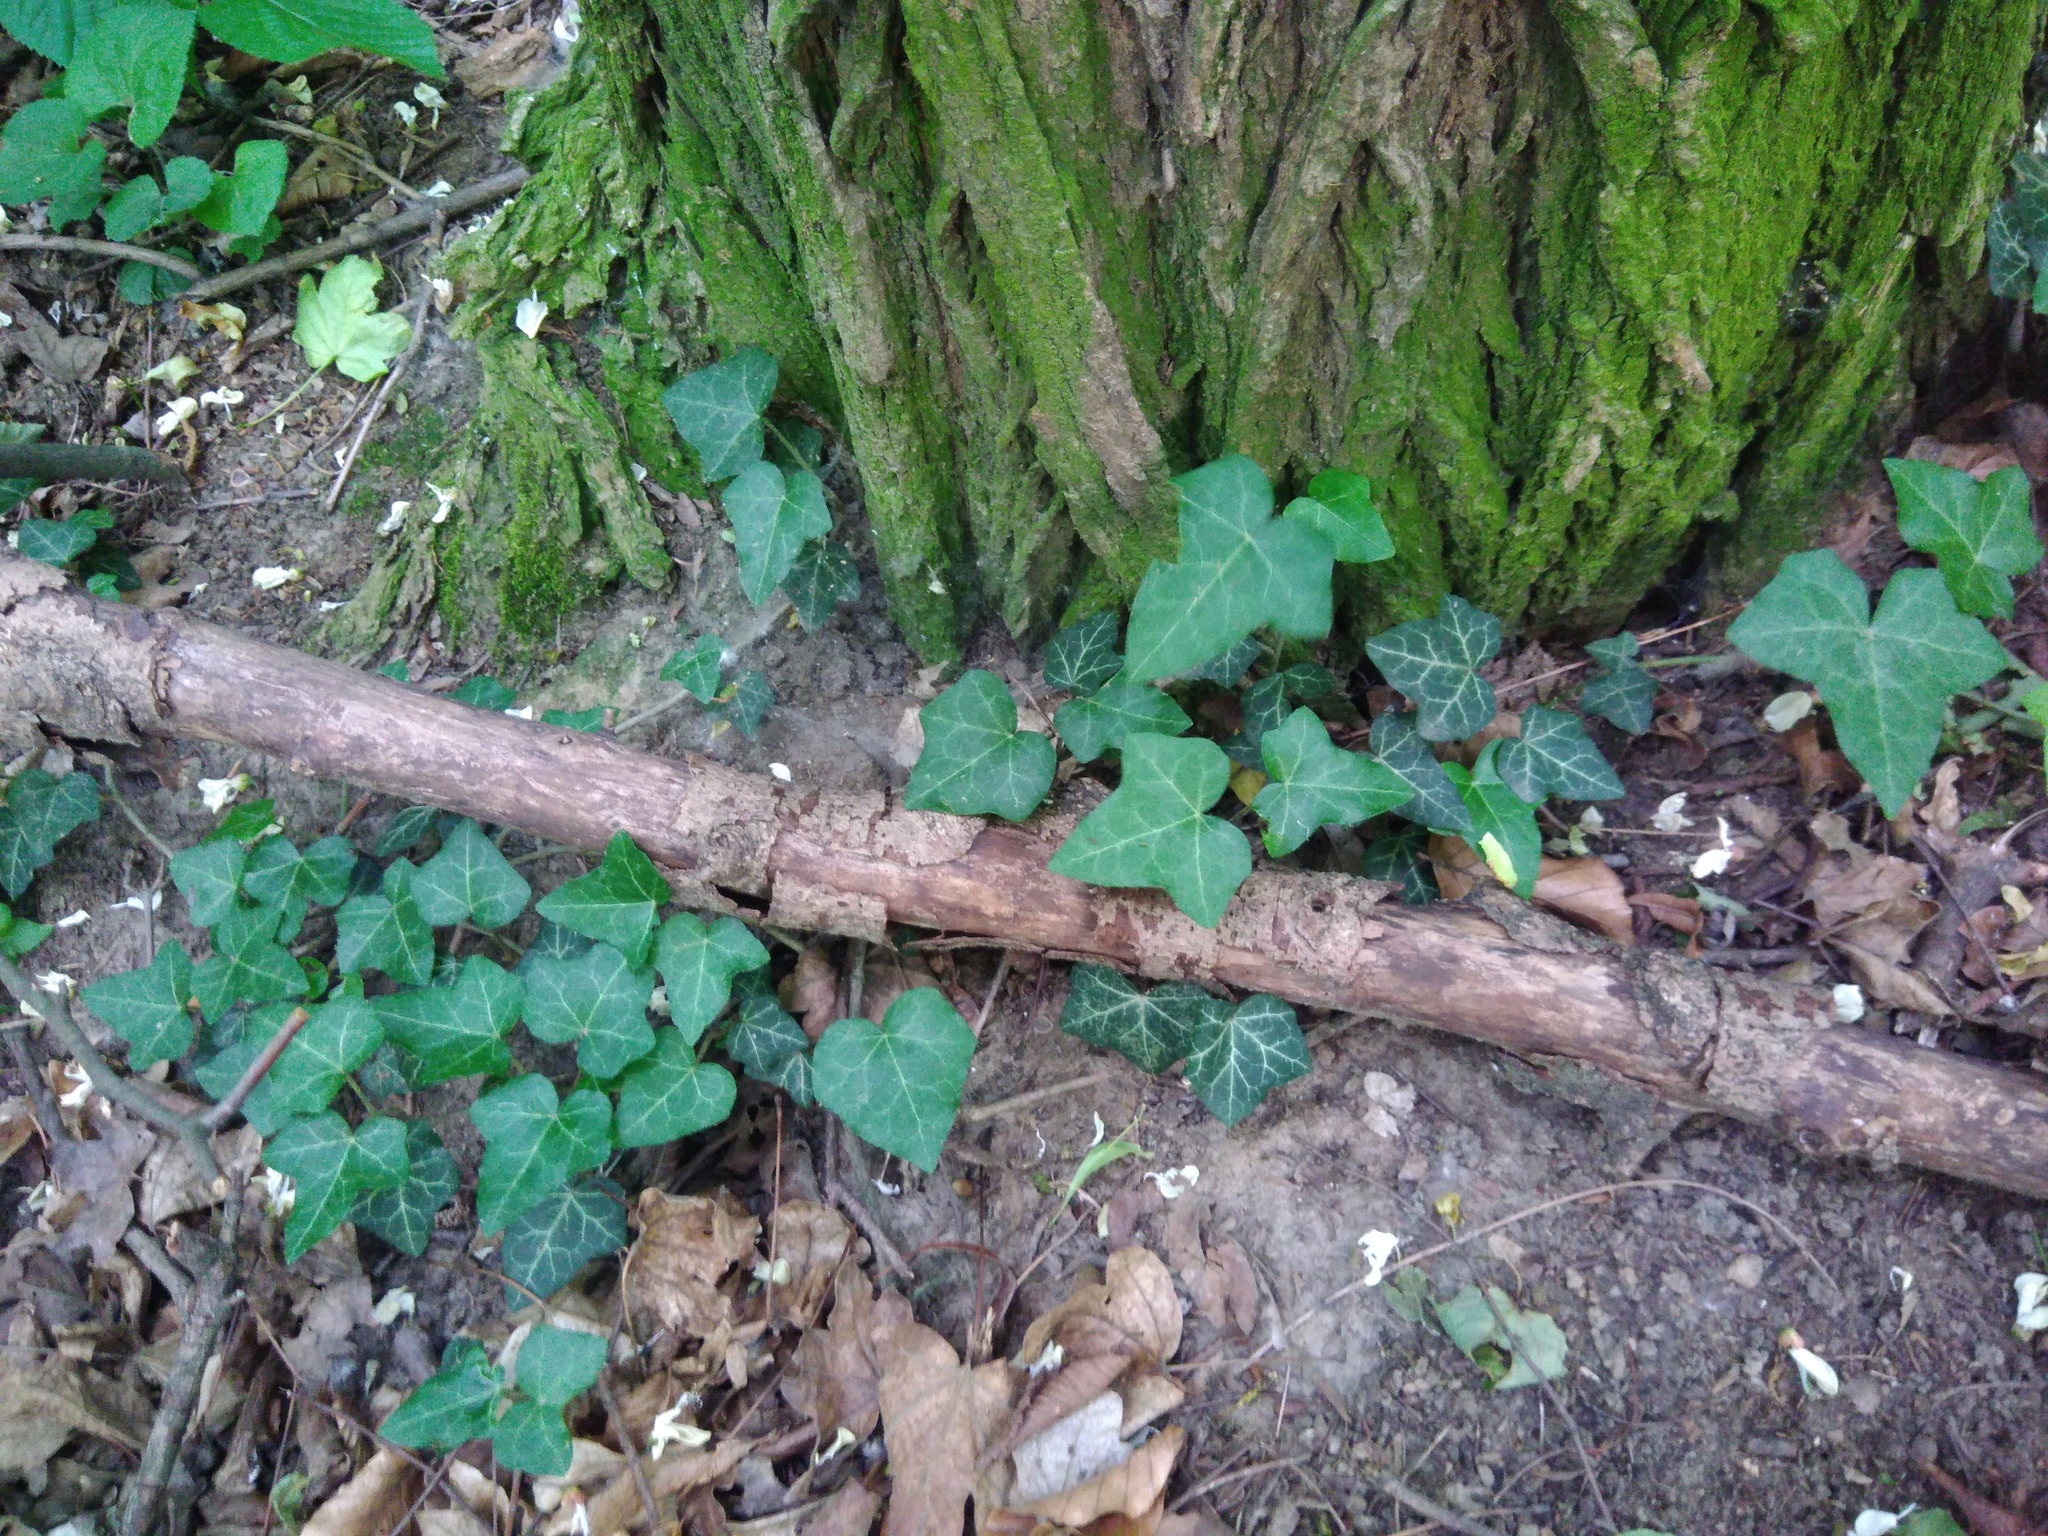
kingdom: Plantae
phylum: Tracheophyta
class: Magnoliopsida
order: Apiales
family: Araliaceae
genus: Hedera
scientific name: Hedera helix
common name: Ivy
